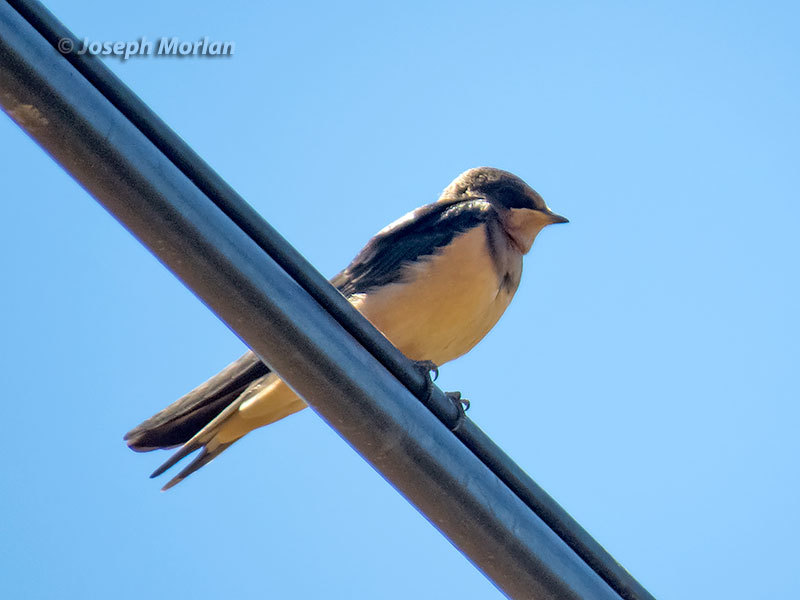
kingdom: Animalia
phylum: Chordata
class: Aves
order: Passeriformes
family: Hirundinidae
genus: Hirundo
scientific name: Hirundo rustica
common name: Barn swallow
